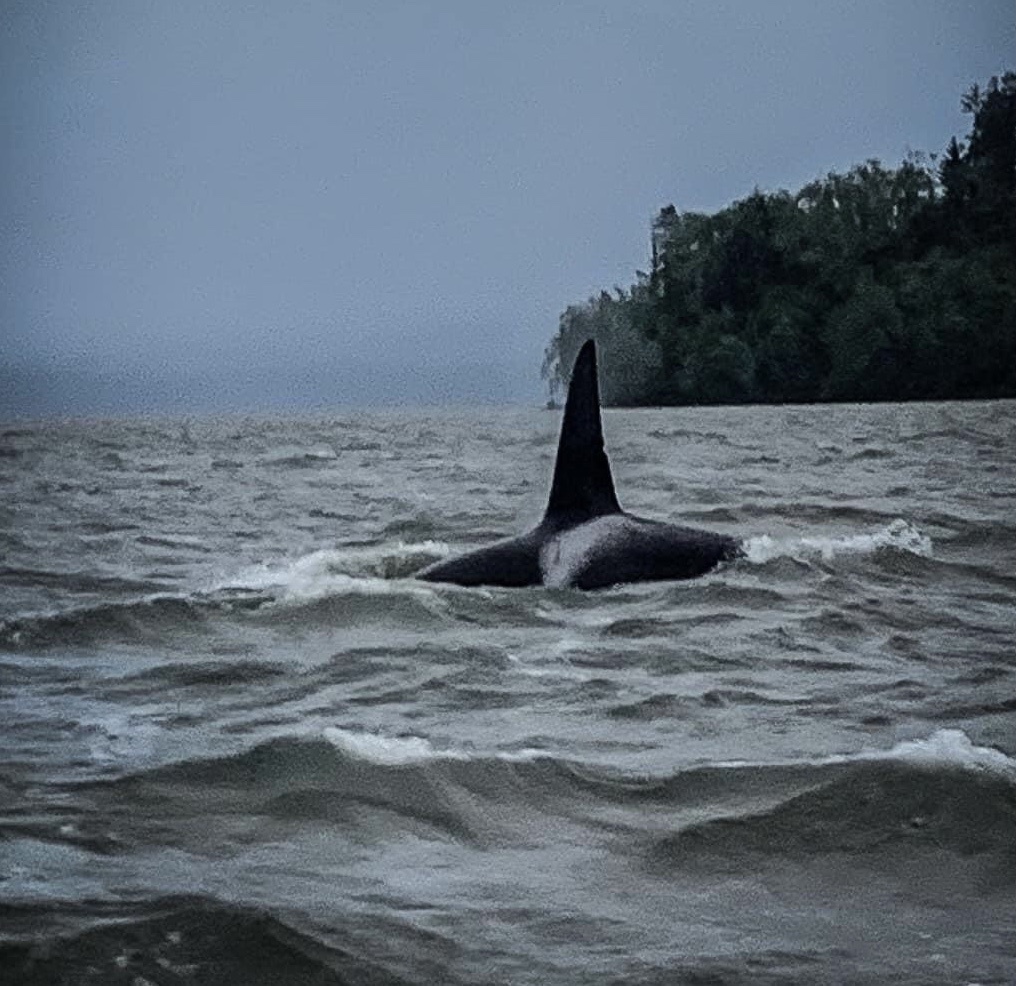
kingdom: Animalia
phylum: Chordata
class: Mammalia
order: Cetacea
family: Delphinidae
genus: Orcinus
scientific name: Orcinus orca
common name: Killer whale
